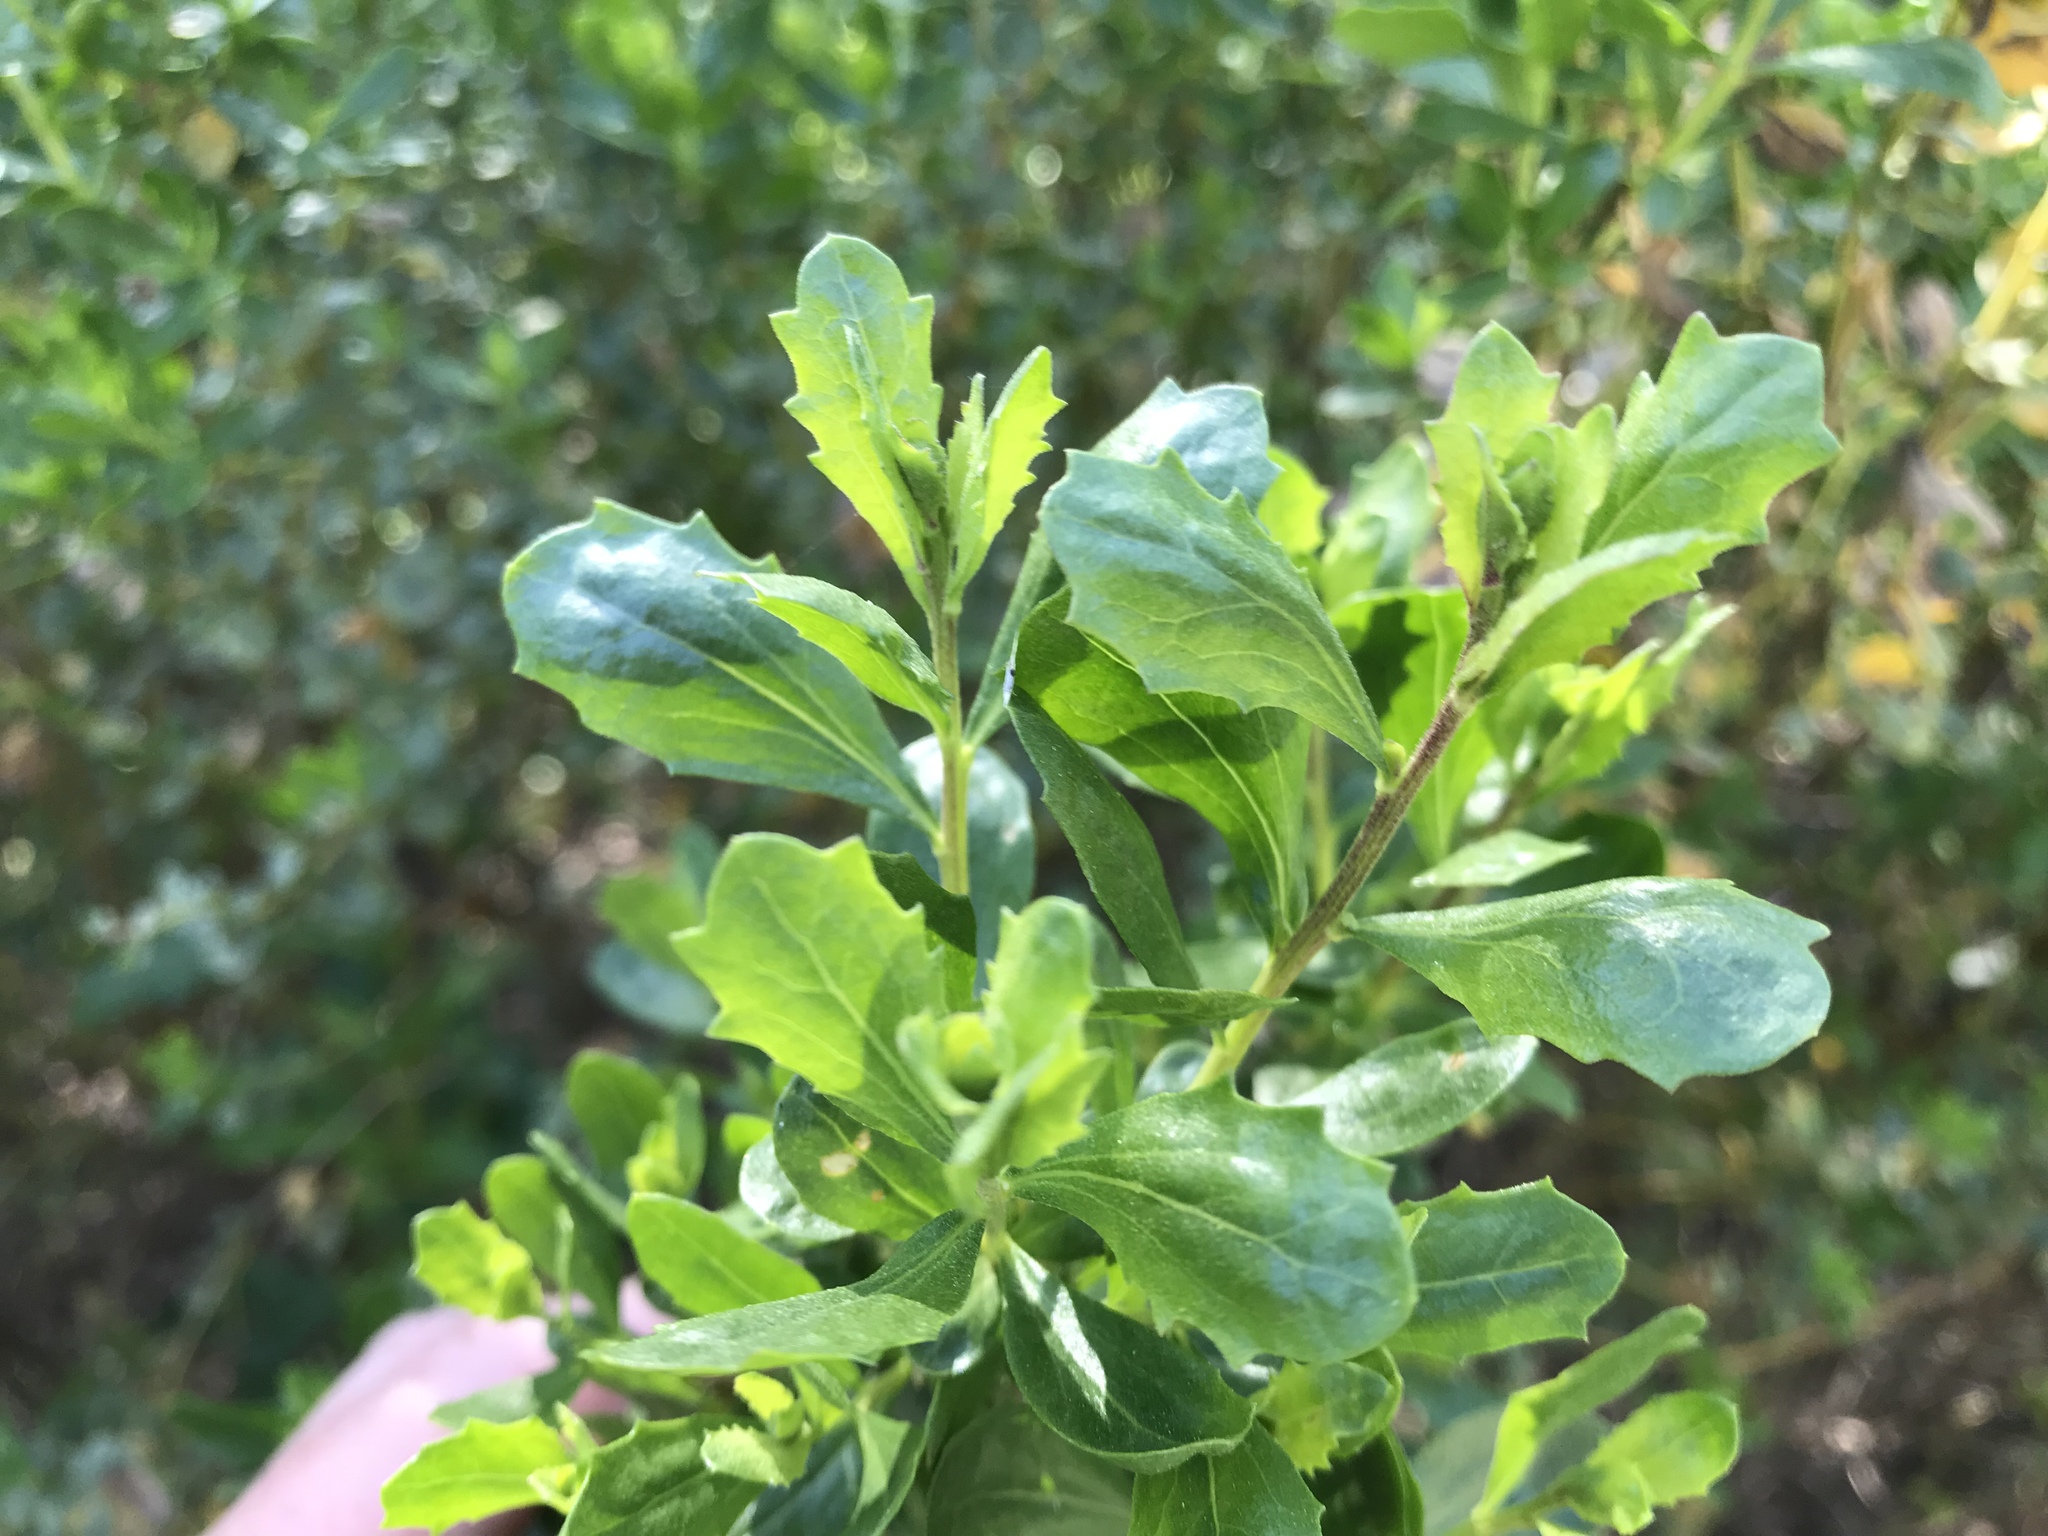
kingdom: Plantae
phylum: Tracheophyta
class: Magnoliopsida
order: Asterales
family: Asteraceae
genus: Baccharis
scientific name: Baccharis pilularis
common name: Coyotebrush
